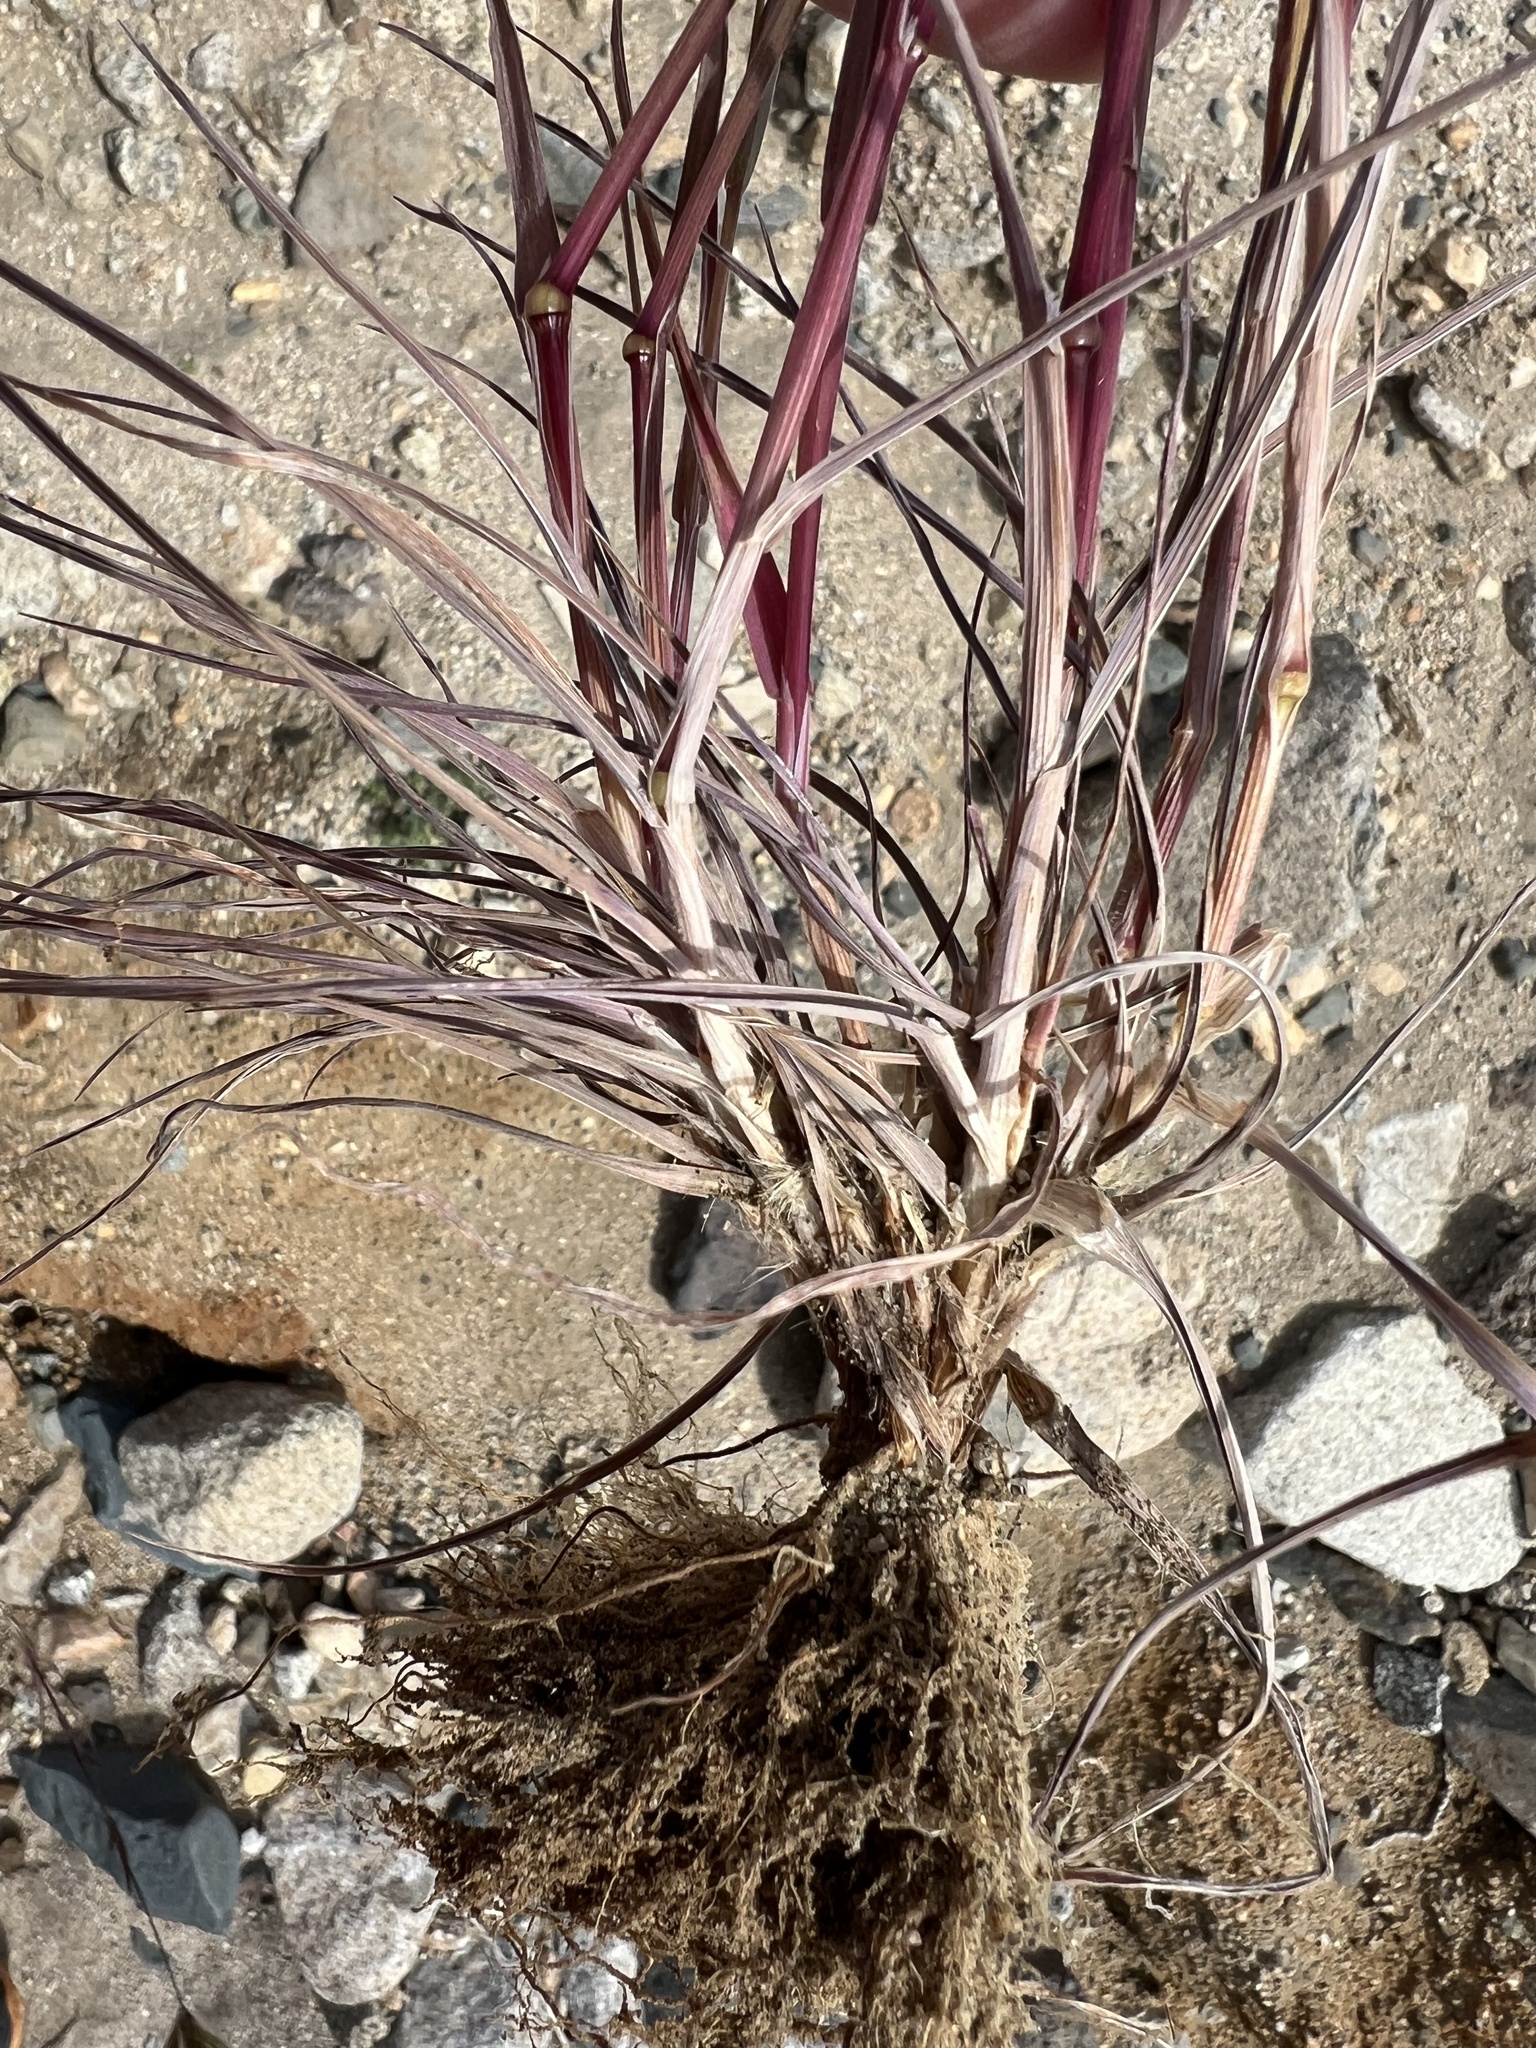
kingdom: Plantae
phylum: Tracheophyta
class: Liliopsida
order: Poales
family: Poaceae
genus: Bromus
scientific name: Bromus rubens
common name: Red brome
